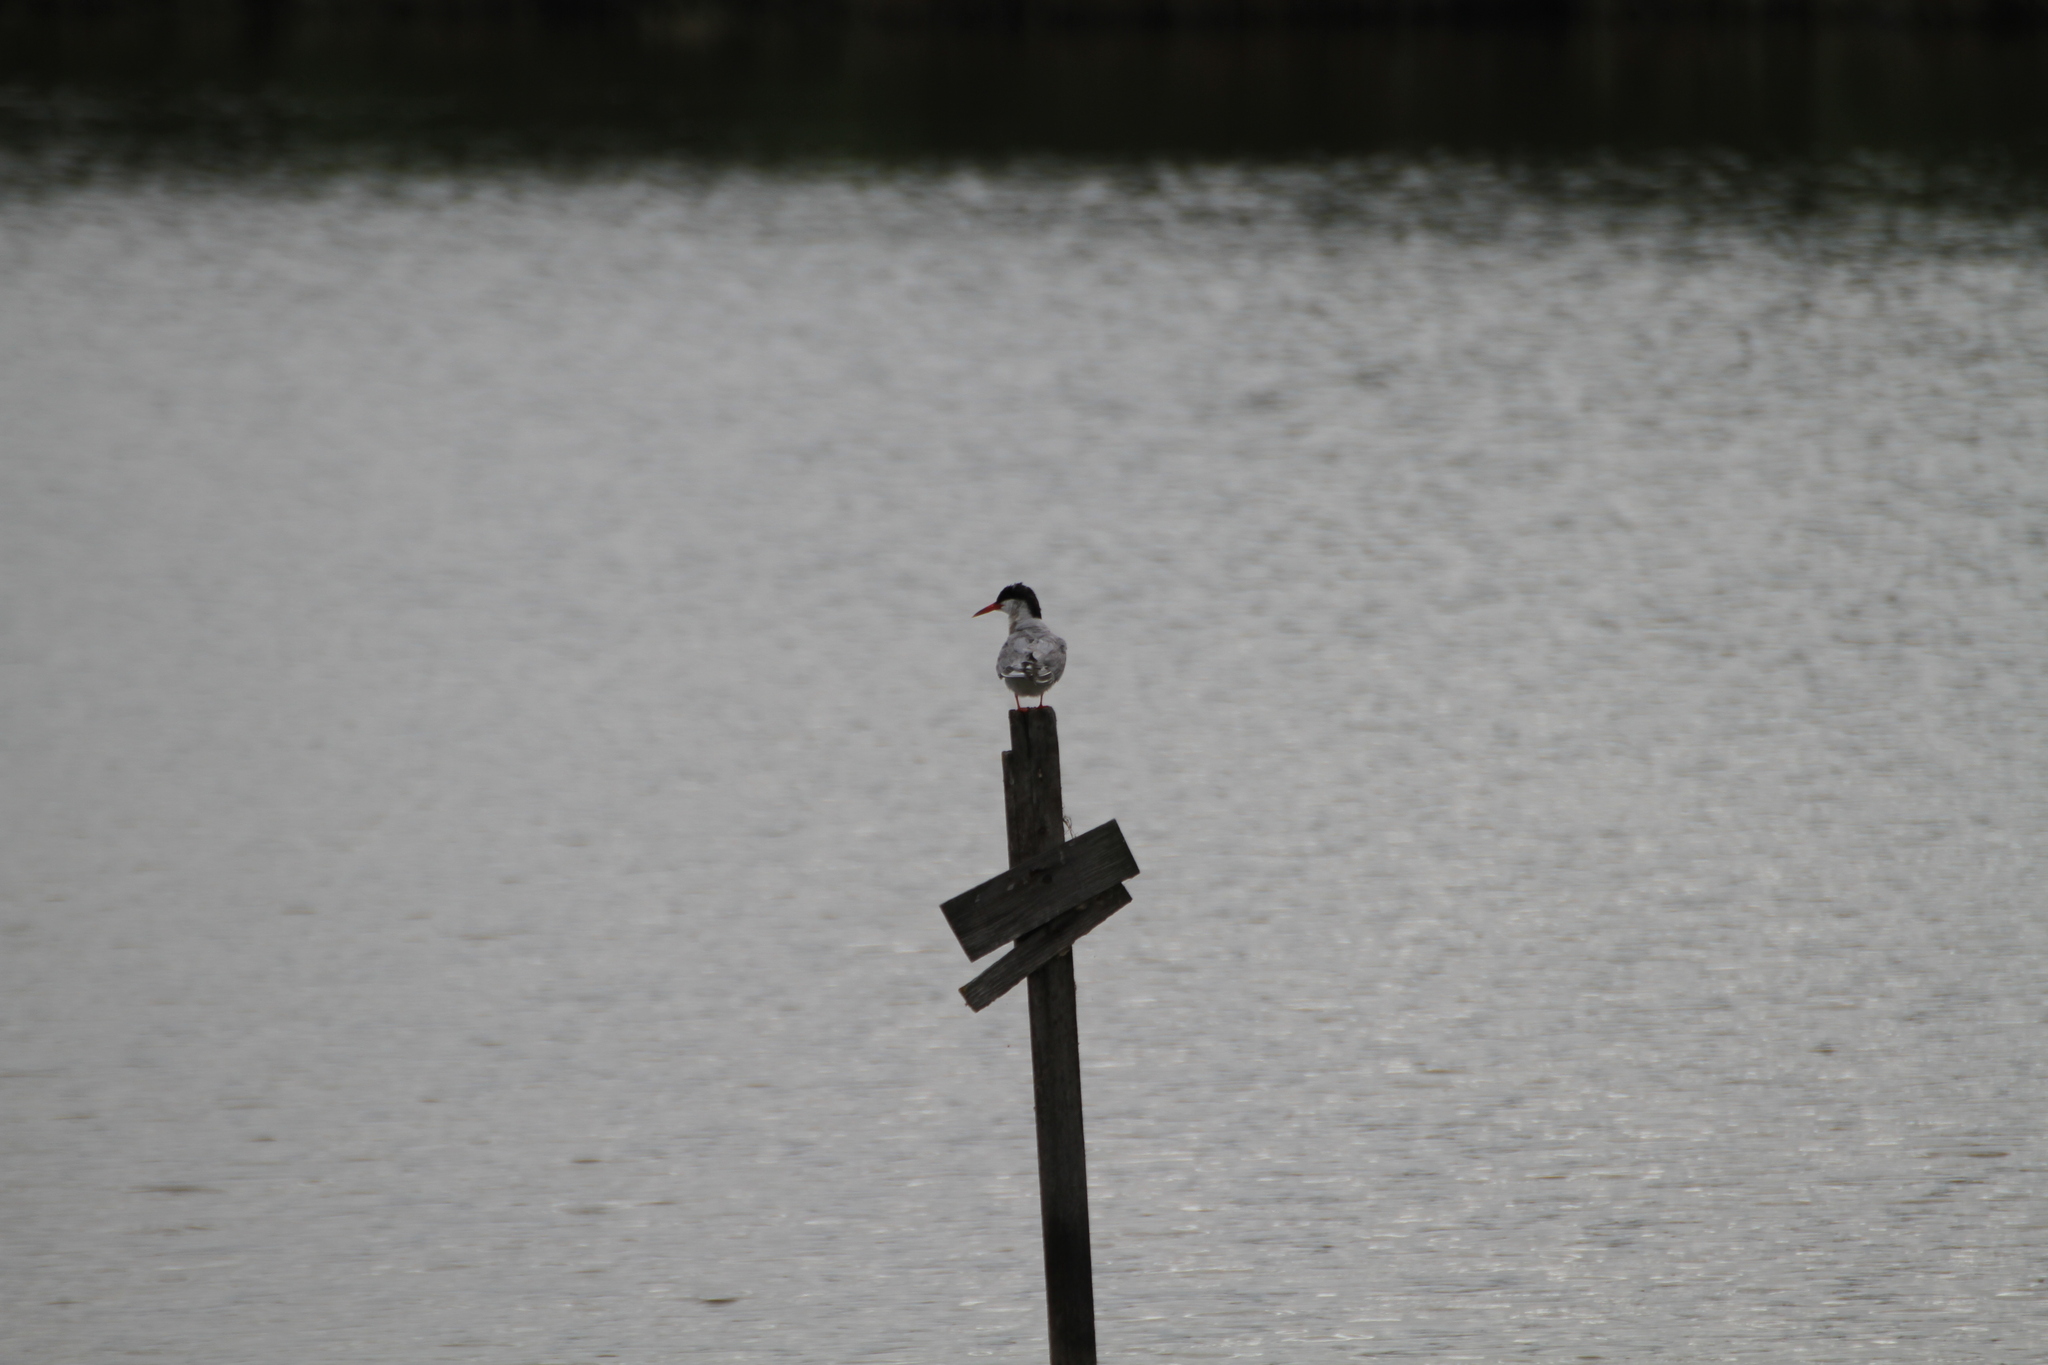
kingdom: Animalia
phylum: Chordata
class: Aves
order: Charadriiformes
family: Laridae
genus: Sterna
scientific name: Sterna hirundo
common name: Common tern
